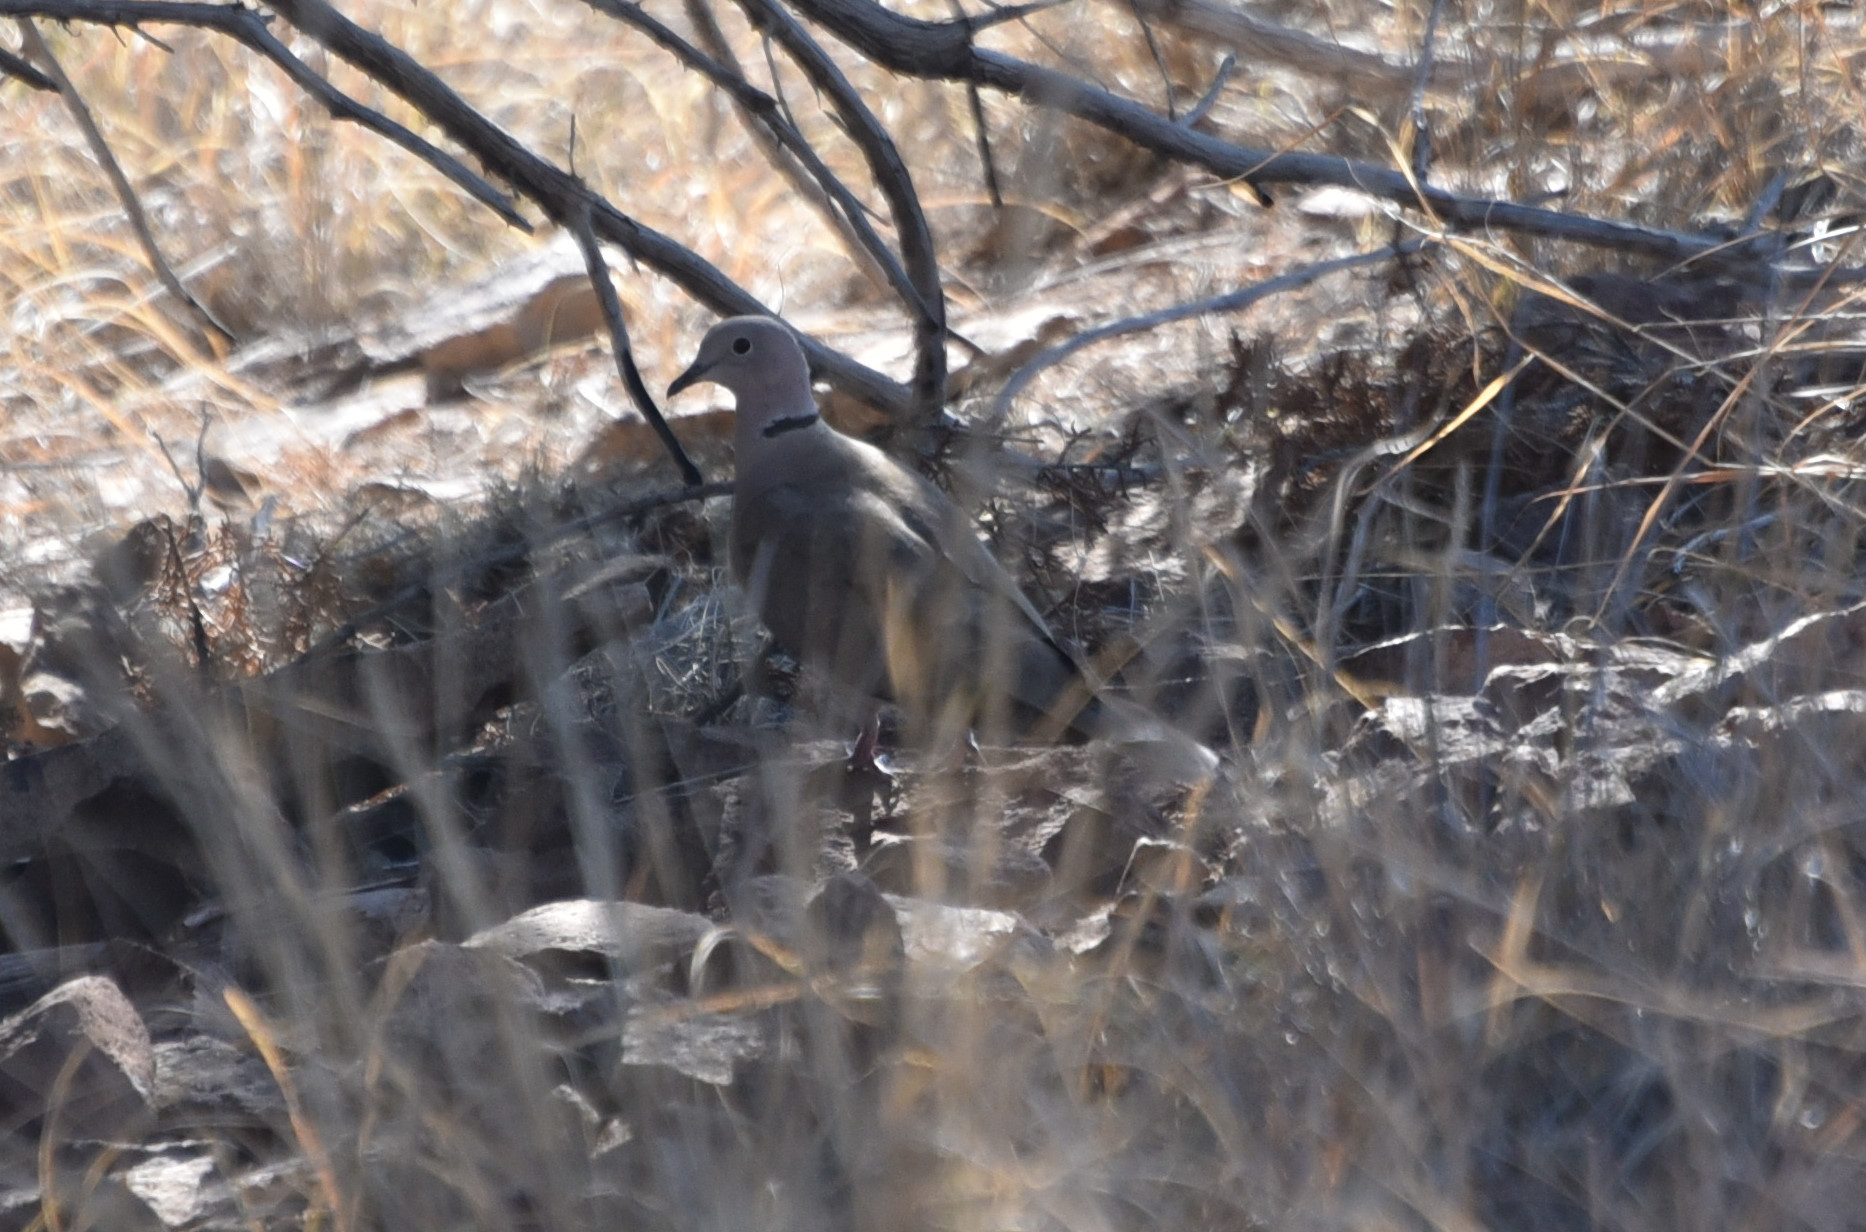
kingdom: Animalia
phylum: Chordata
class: Aves
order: Columbiformes
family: Columbidae
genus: Streptopelia
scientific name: Streptopelia decaocto
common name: Eurasian collared dove
